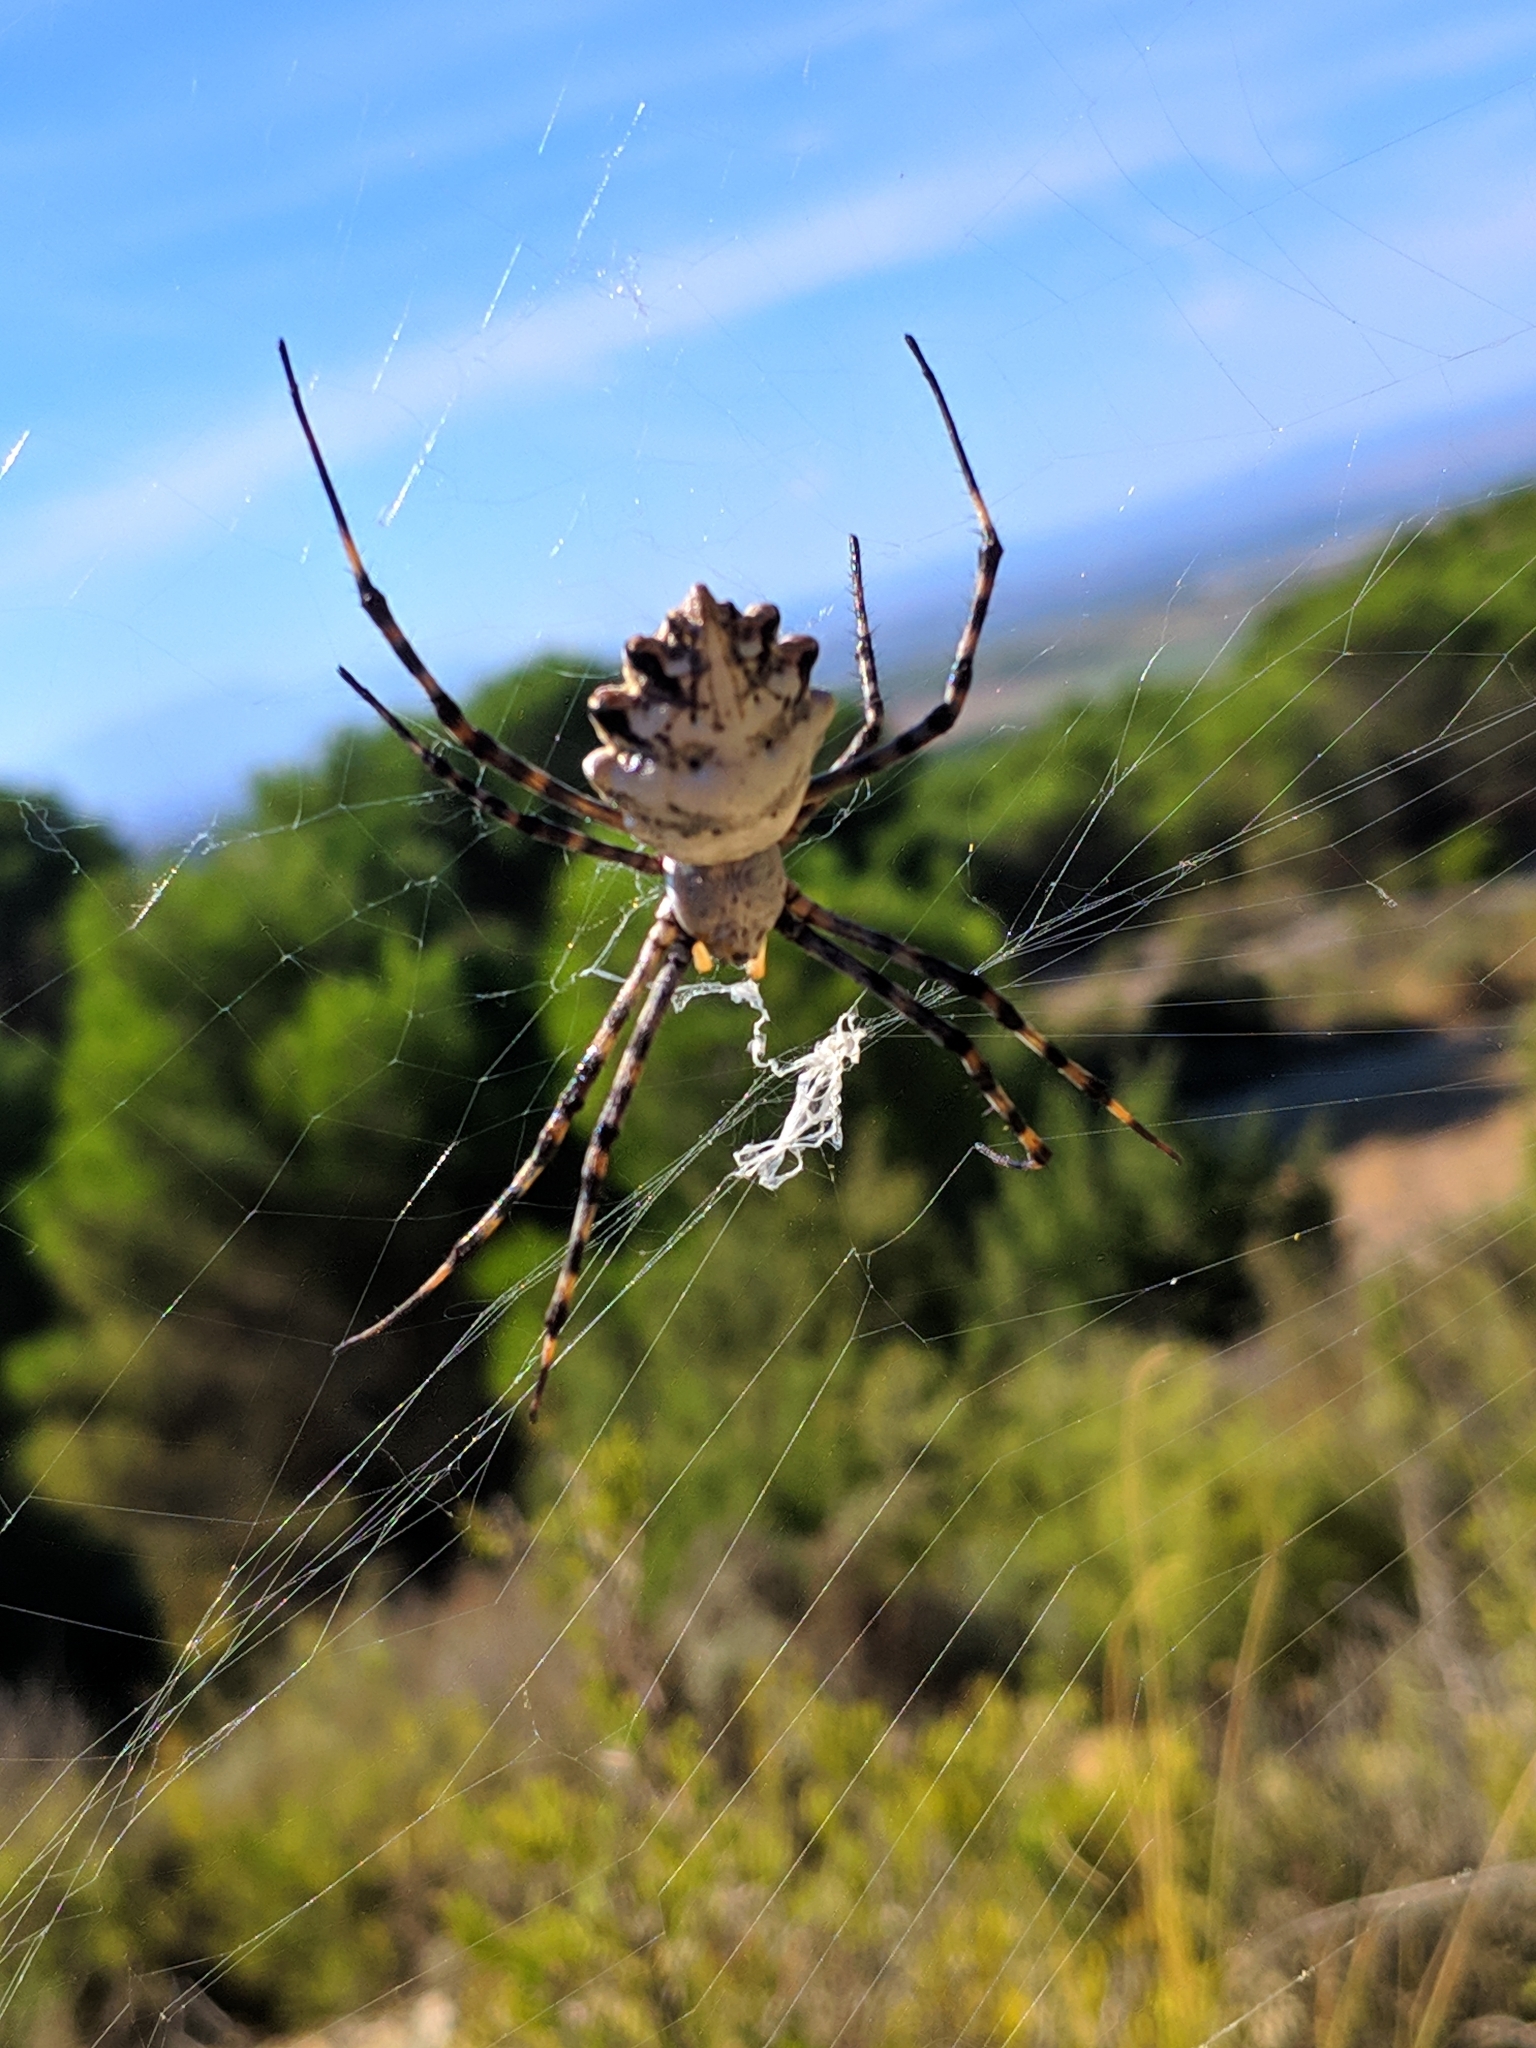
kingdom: Animalia
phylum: Arthropoda
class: Arachnida
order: Araneae
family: Araneidae
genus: Argiope
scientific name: Argiope lobata
